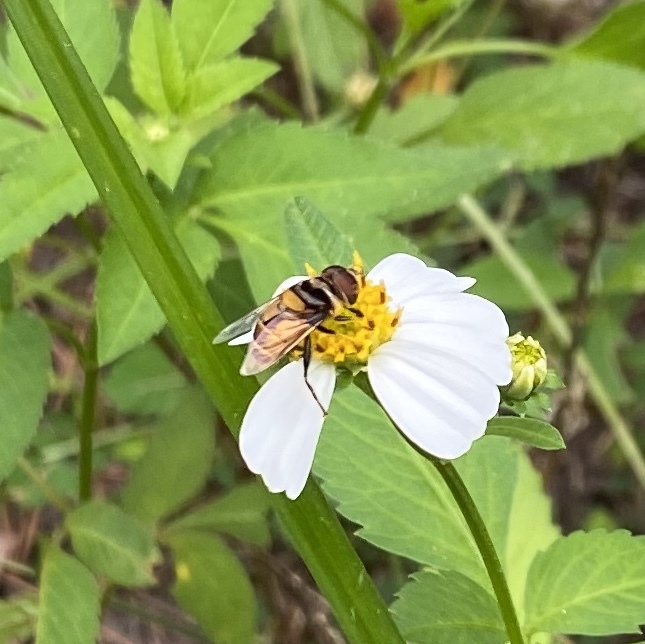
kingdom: Animalia
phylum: Arthropoda
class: Insecta
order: Diptera
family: Syrphidae
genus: Palpada
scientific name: Palpada agrorum
